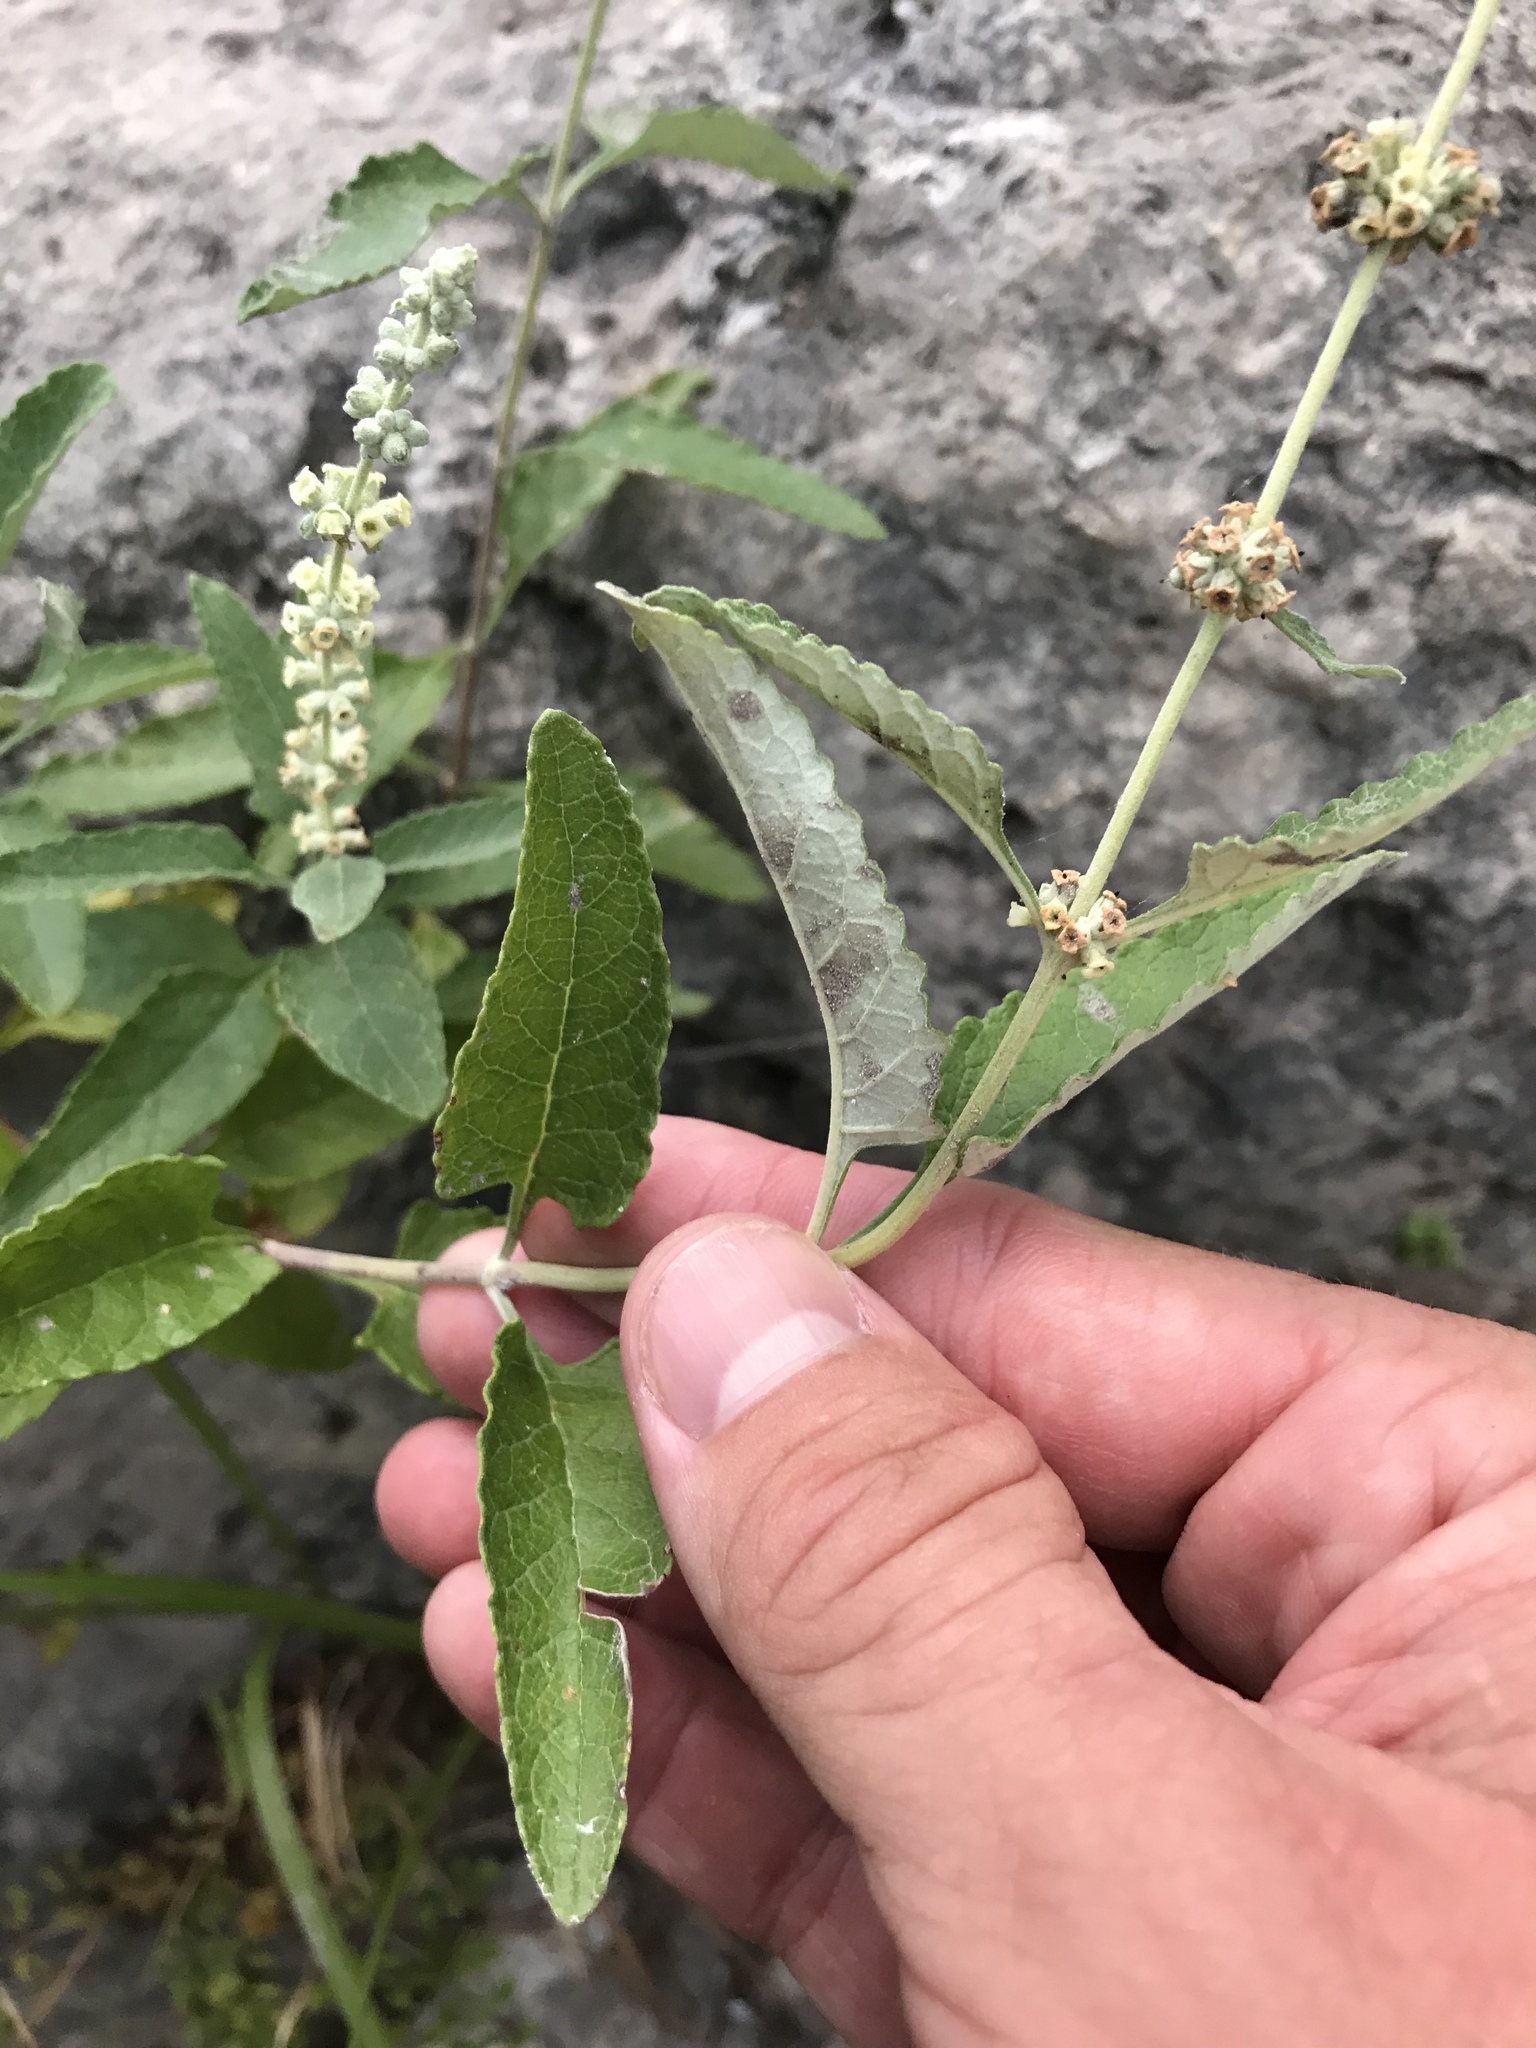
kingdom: Plantae
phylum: Tracheophyta
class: Magnoliopsida
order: Lamiales
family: Scrophulariaceae
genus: Buddleja
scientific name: Buddleja racemosa
